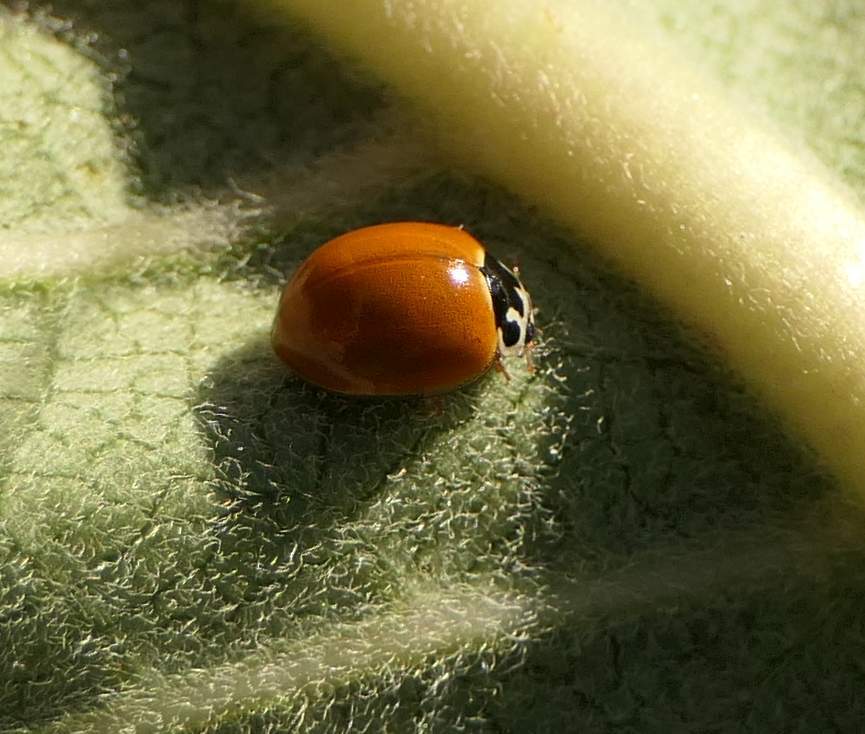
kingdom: Animalia
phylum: Arthropoda
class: Insecta
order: Coleoptera
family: Coccinellidae
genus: Cycloneda
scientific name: Cycloneda munda
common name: Polished lady beetle
